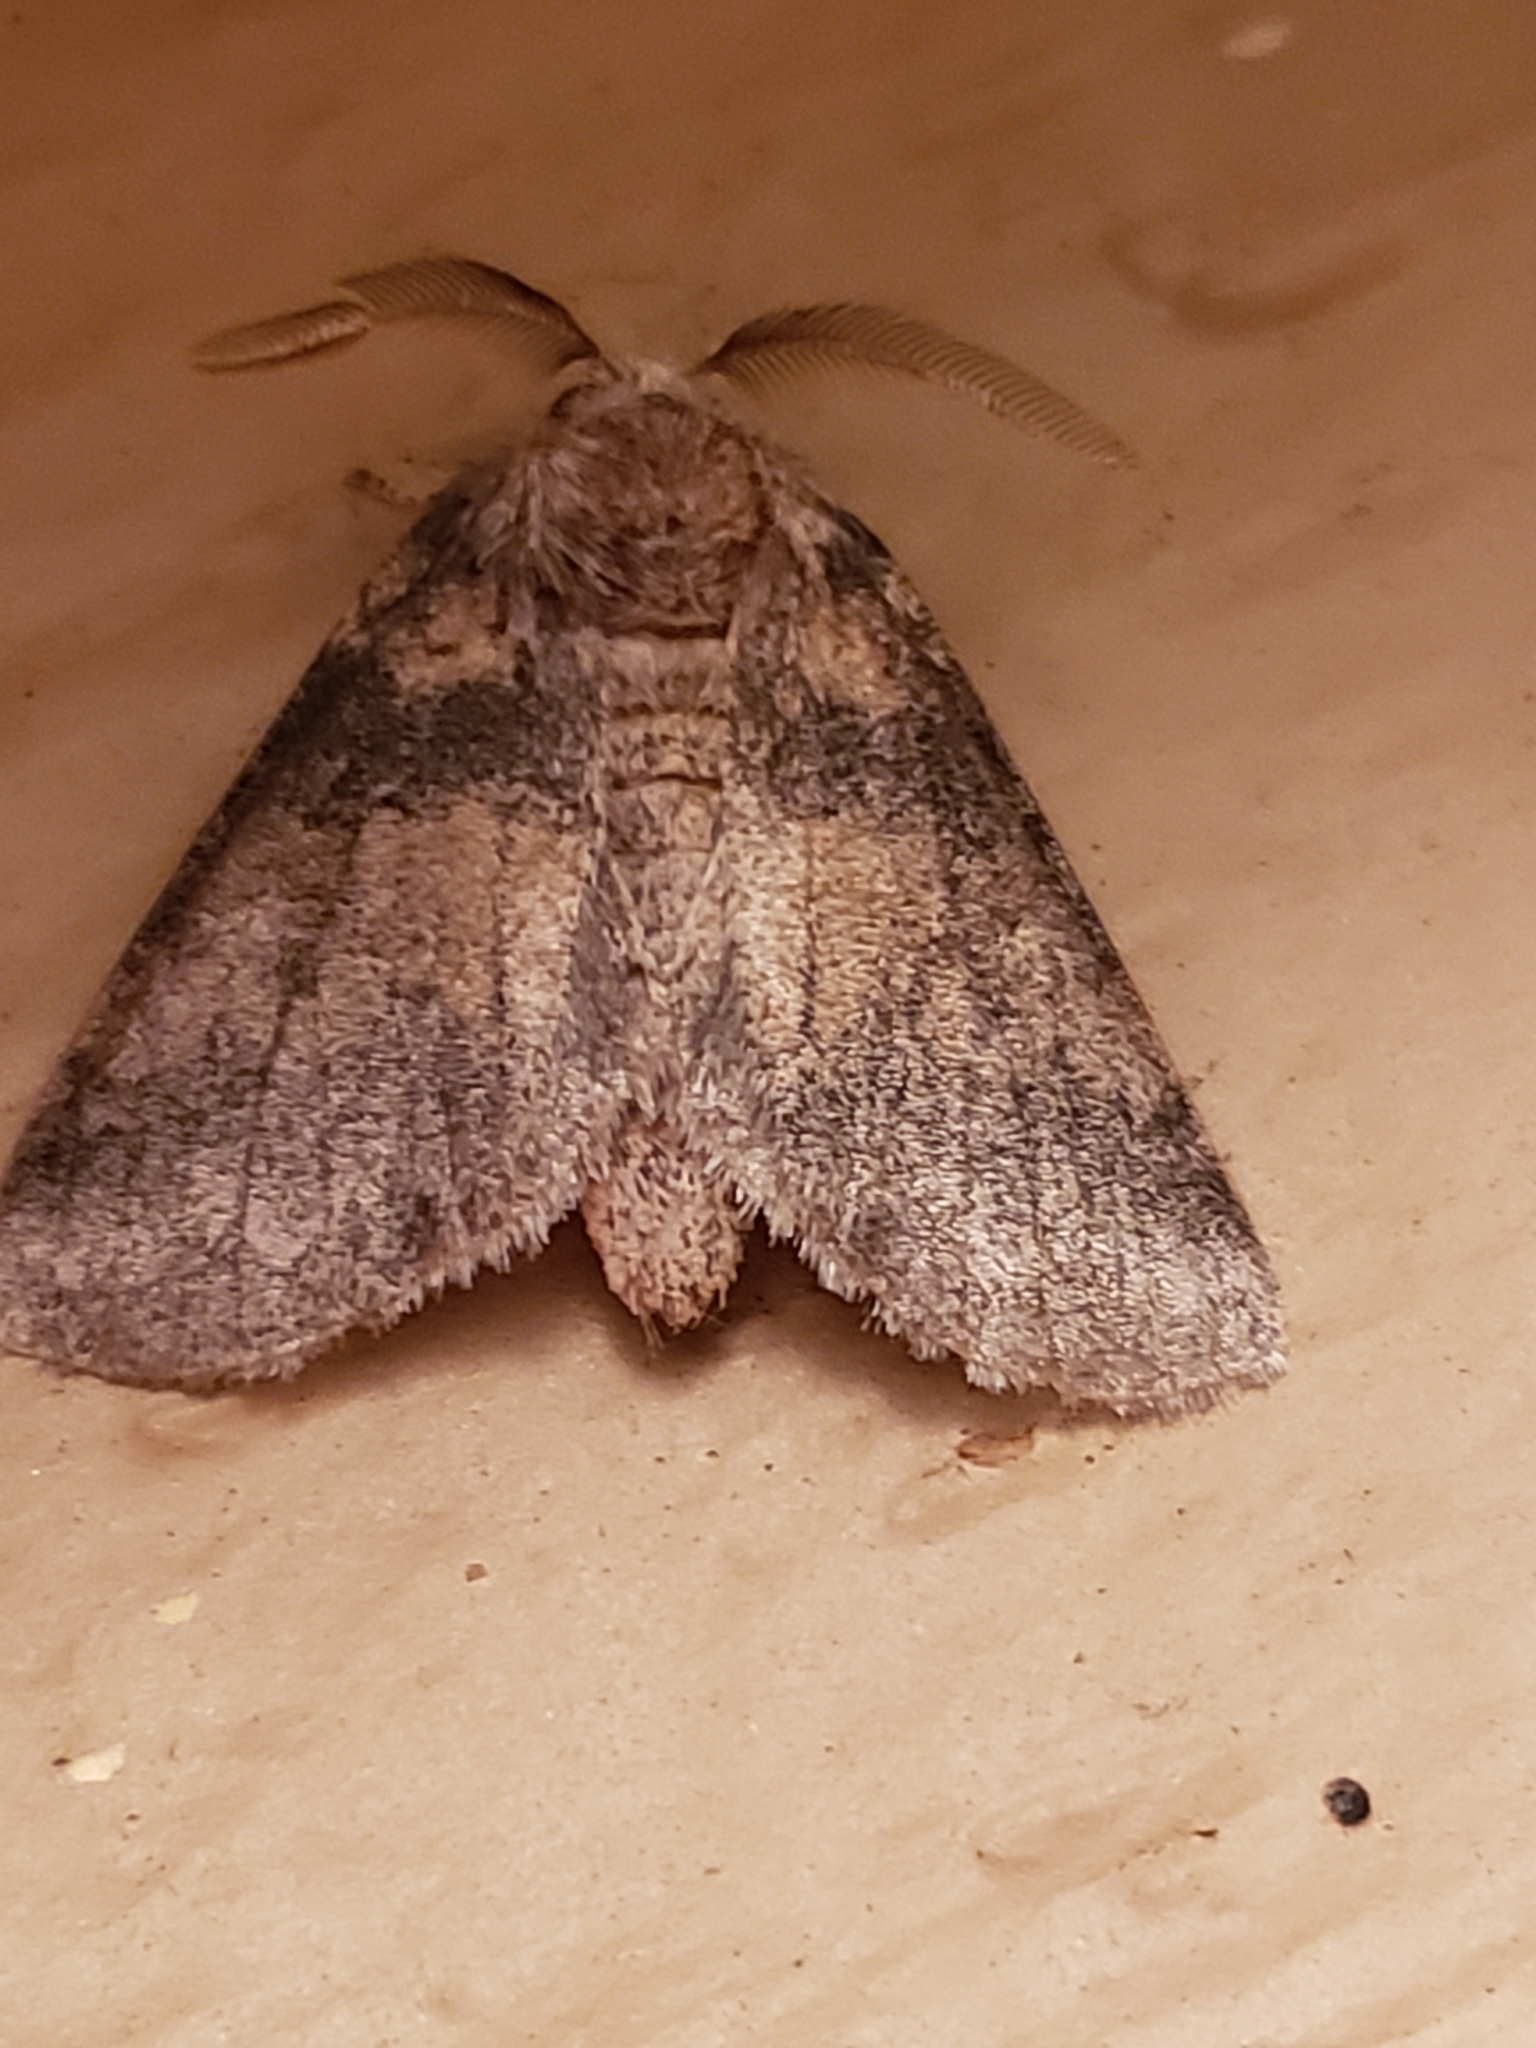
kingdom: Animalia
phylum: Arthropoda
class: Insecta
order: Lepidoptera
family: Notodontidae
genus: Gluphisia
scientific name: Gluphisia septentrionis
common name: Common gluphisia
